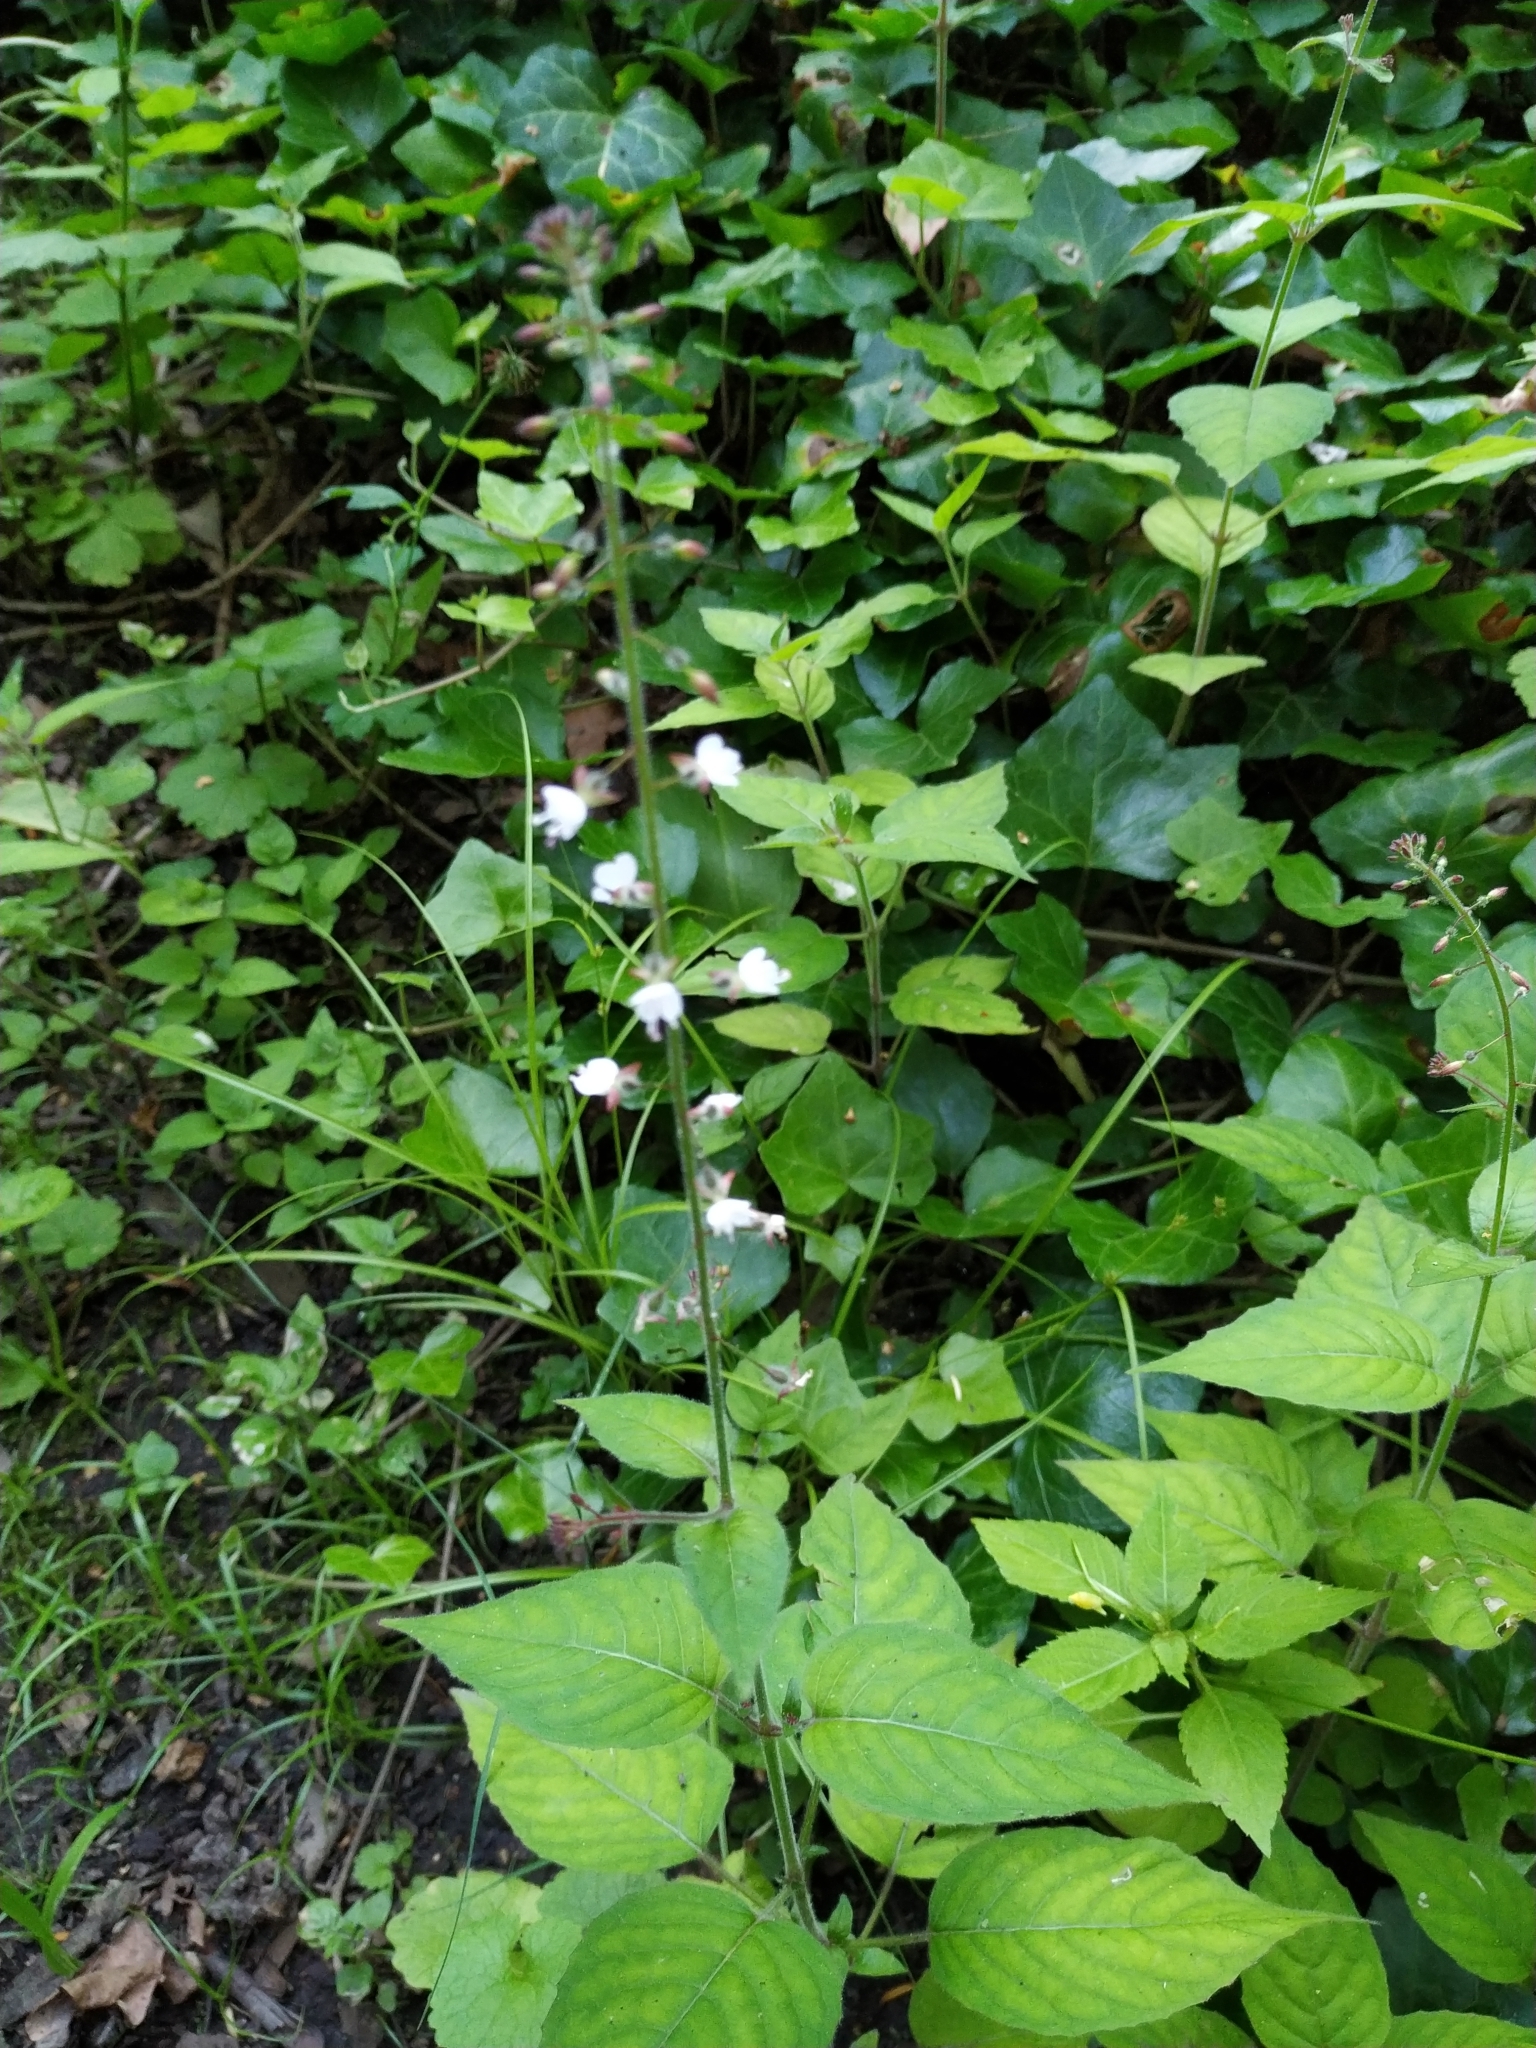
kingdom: Plantae
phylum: Tracheophyta
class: Magnoliopsida
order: Myrtales
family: Onagraceae
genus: Circaea
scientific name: Circaea lutetiana
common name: Enchanter's-nightshade
